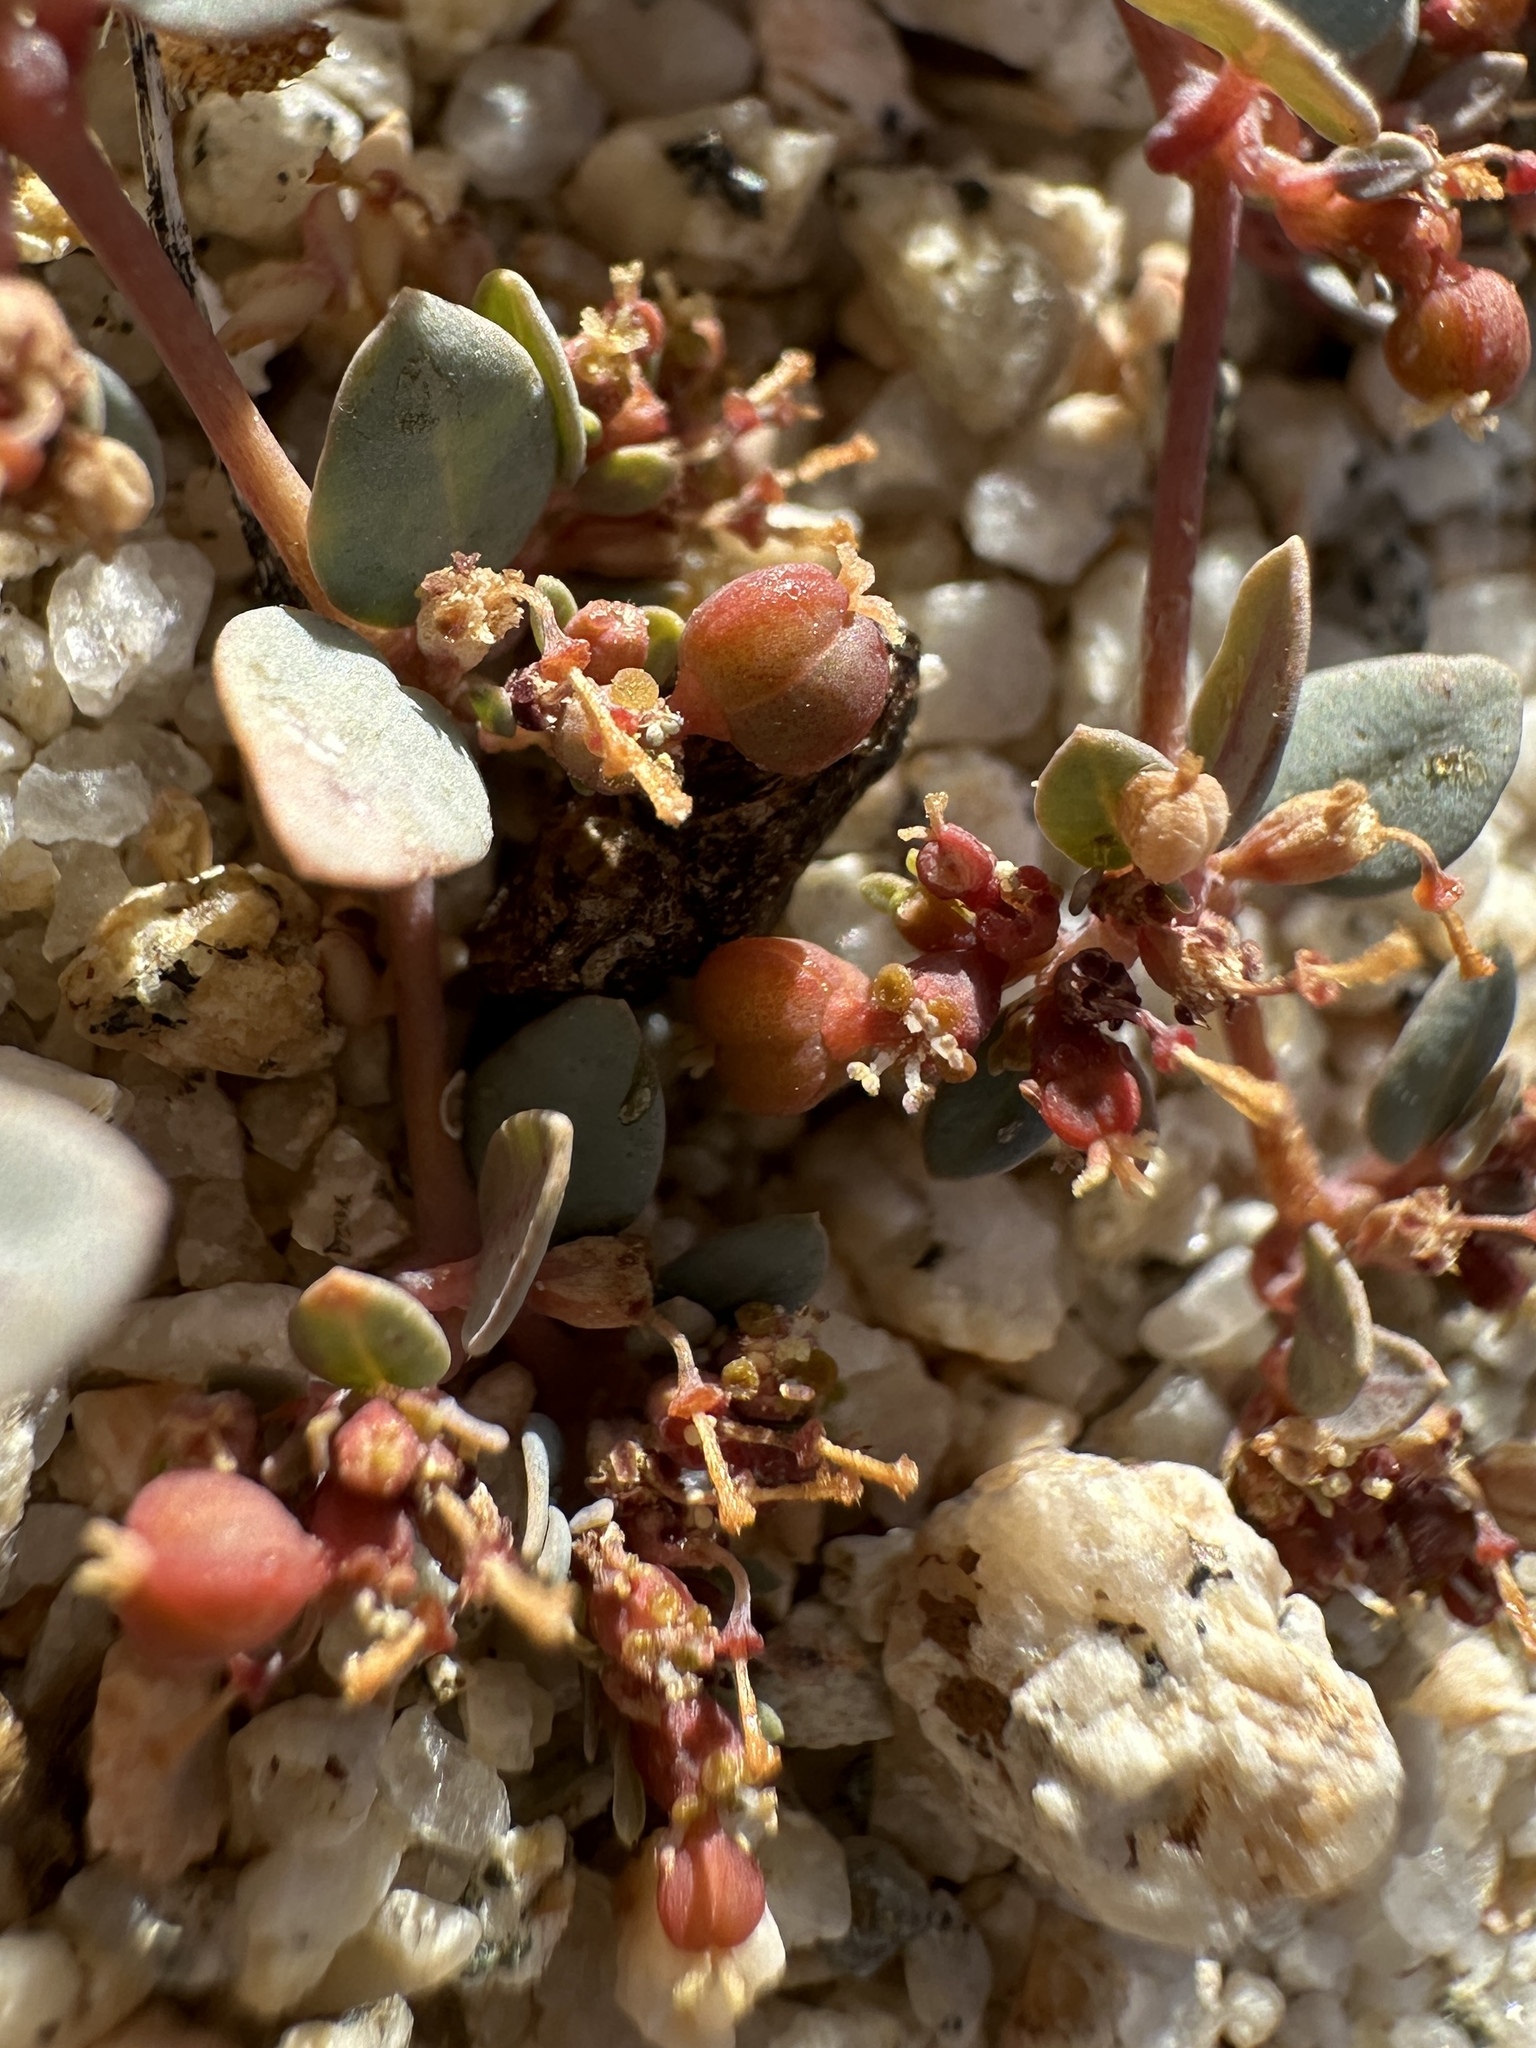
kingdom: Plantae
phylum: Tracheophyta
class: Magnoliopsida
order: Malpighiales
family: Euphorbiaceae
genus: Euphorbia
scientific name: Euphorbia parishii
